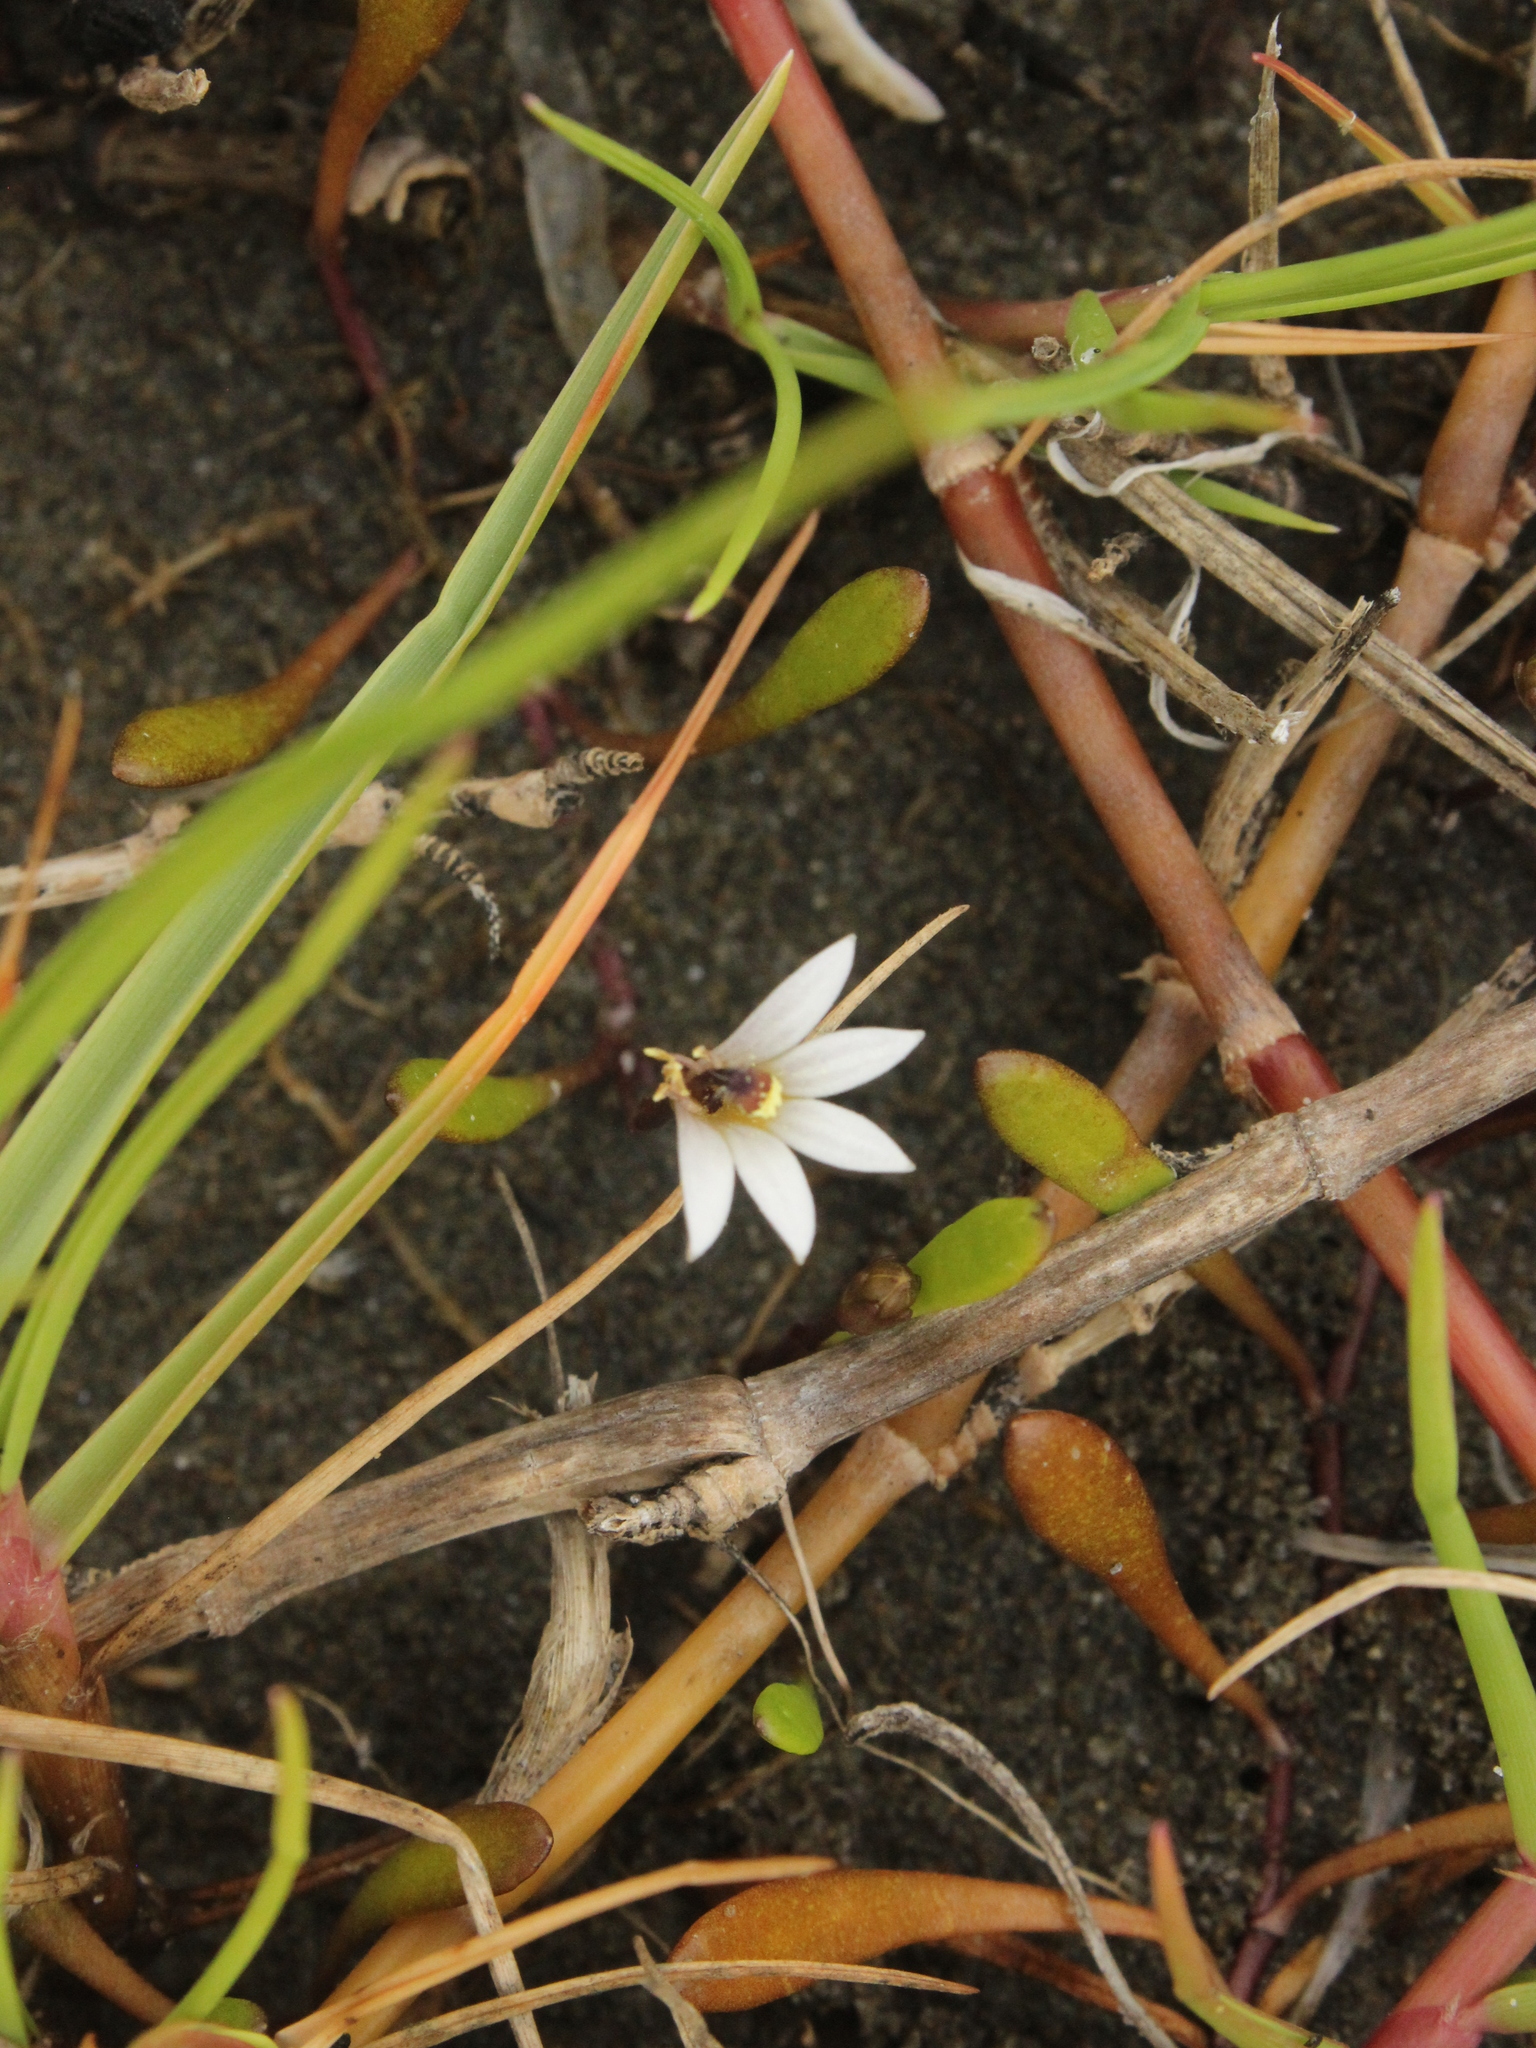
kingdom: Plantae
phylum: Tracheophyta
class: Magnoliopsida
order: Asterales
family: Goodeniaceae
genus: Goodenia
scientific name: Goodenia radicans
